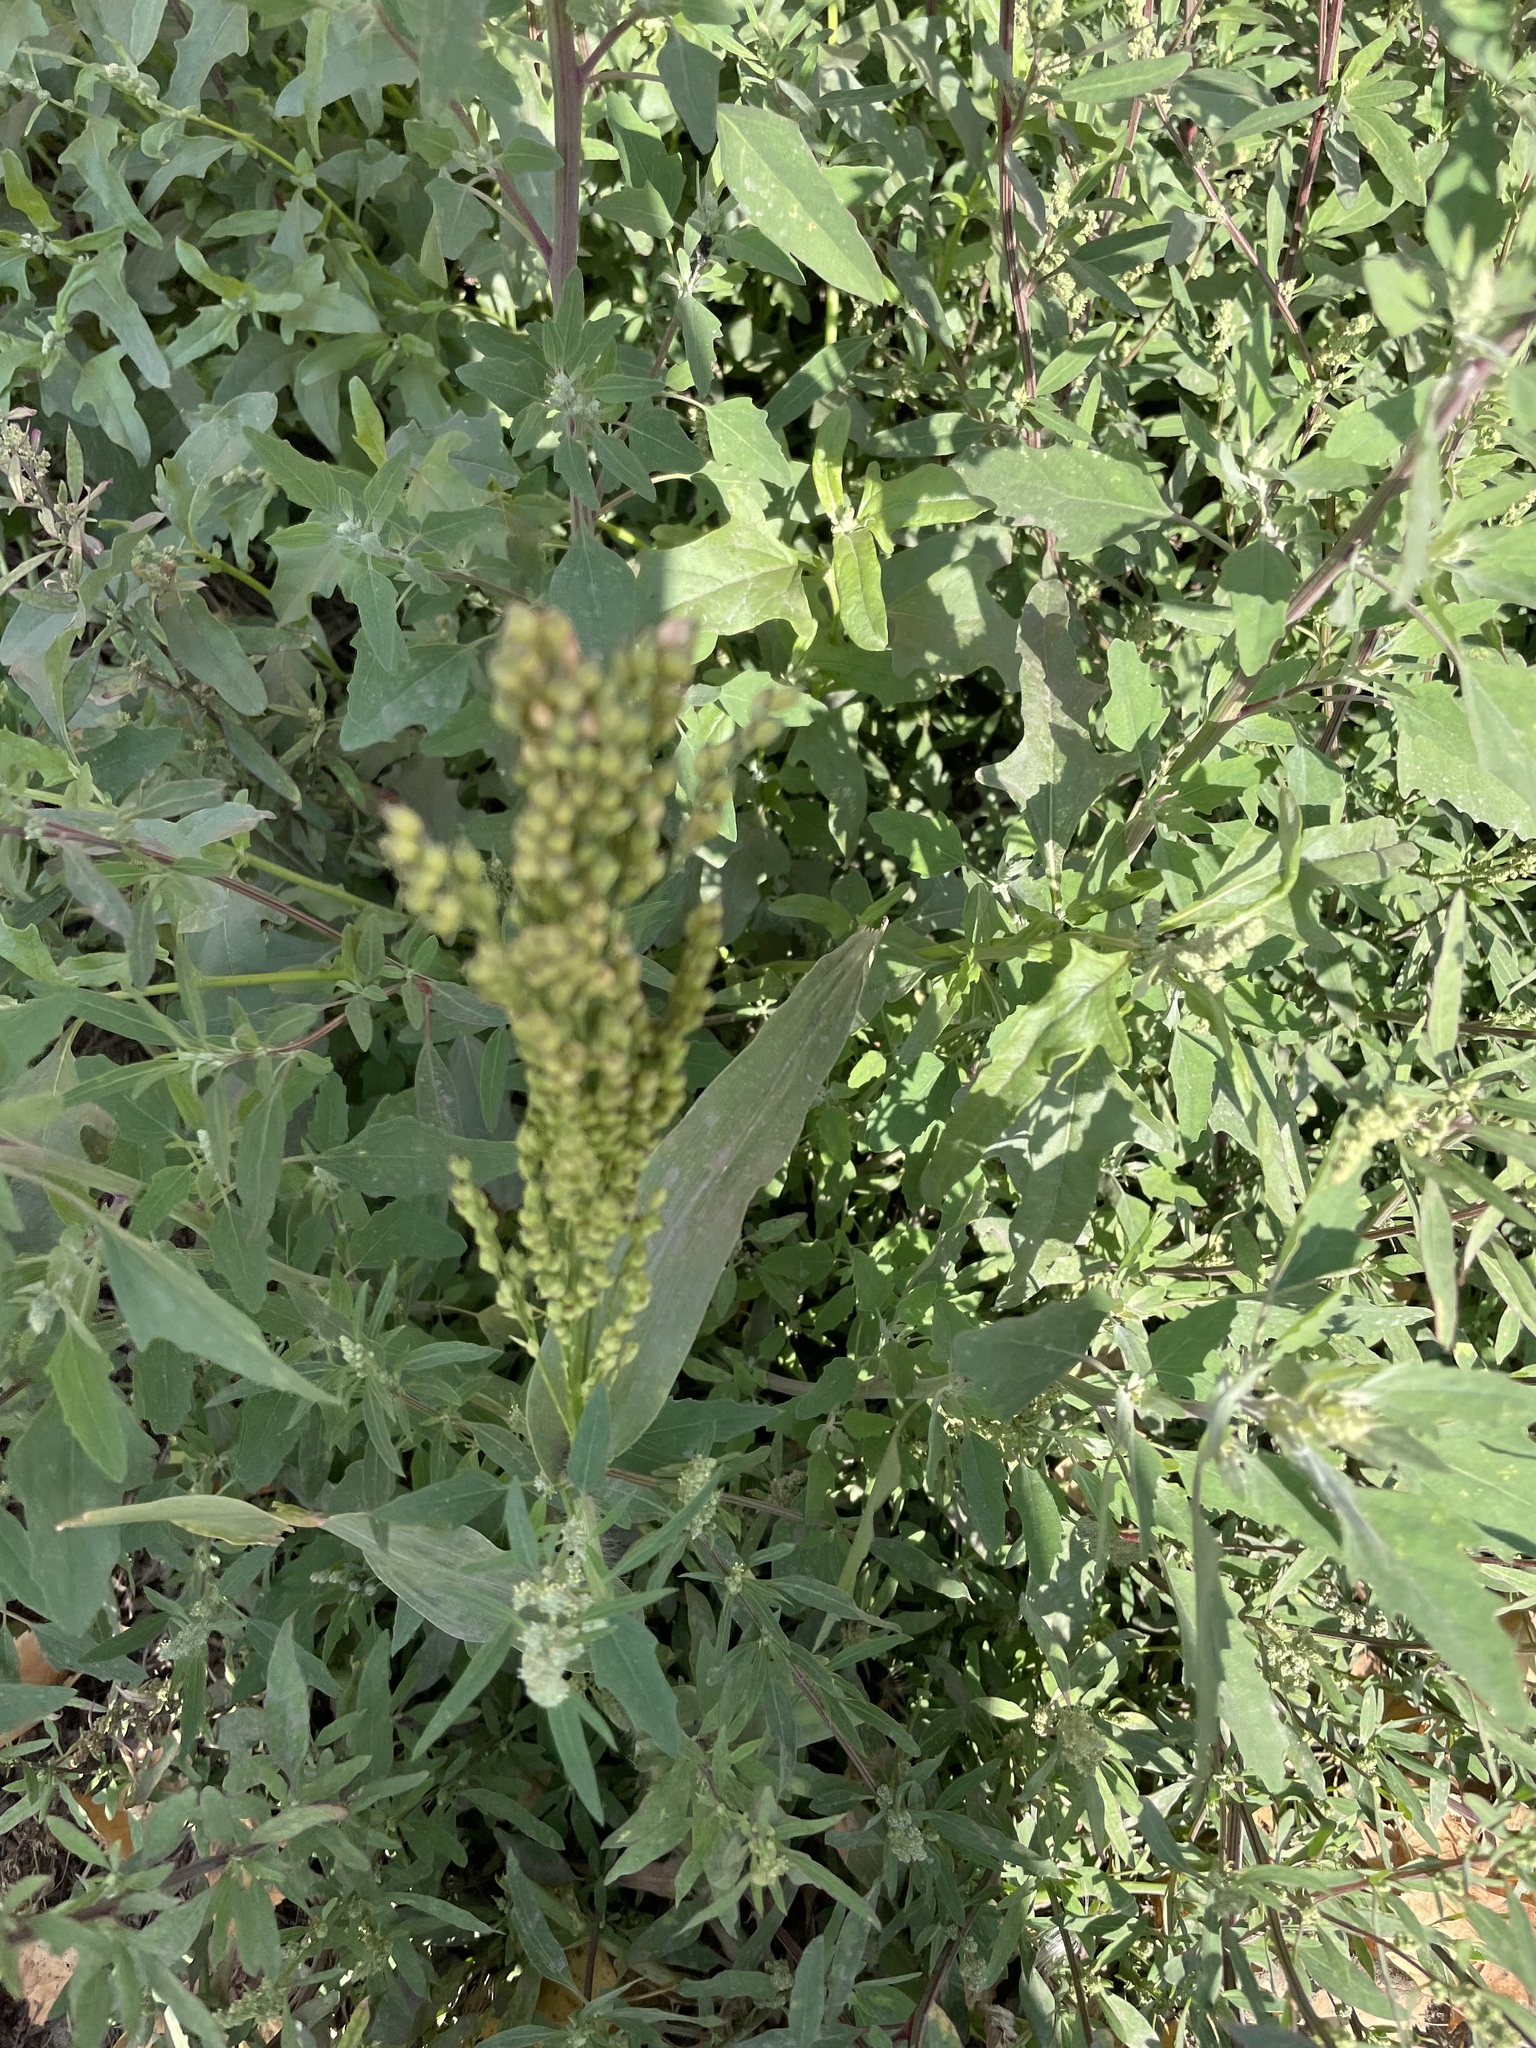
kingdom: Plantae
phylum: Tracheophyta
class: Liliopsida
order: Poales
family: Poaceae
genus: Panicum
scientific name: Panicum miliaceum
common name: Common millet
